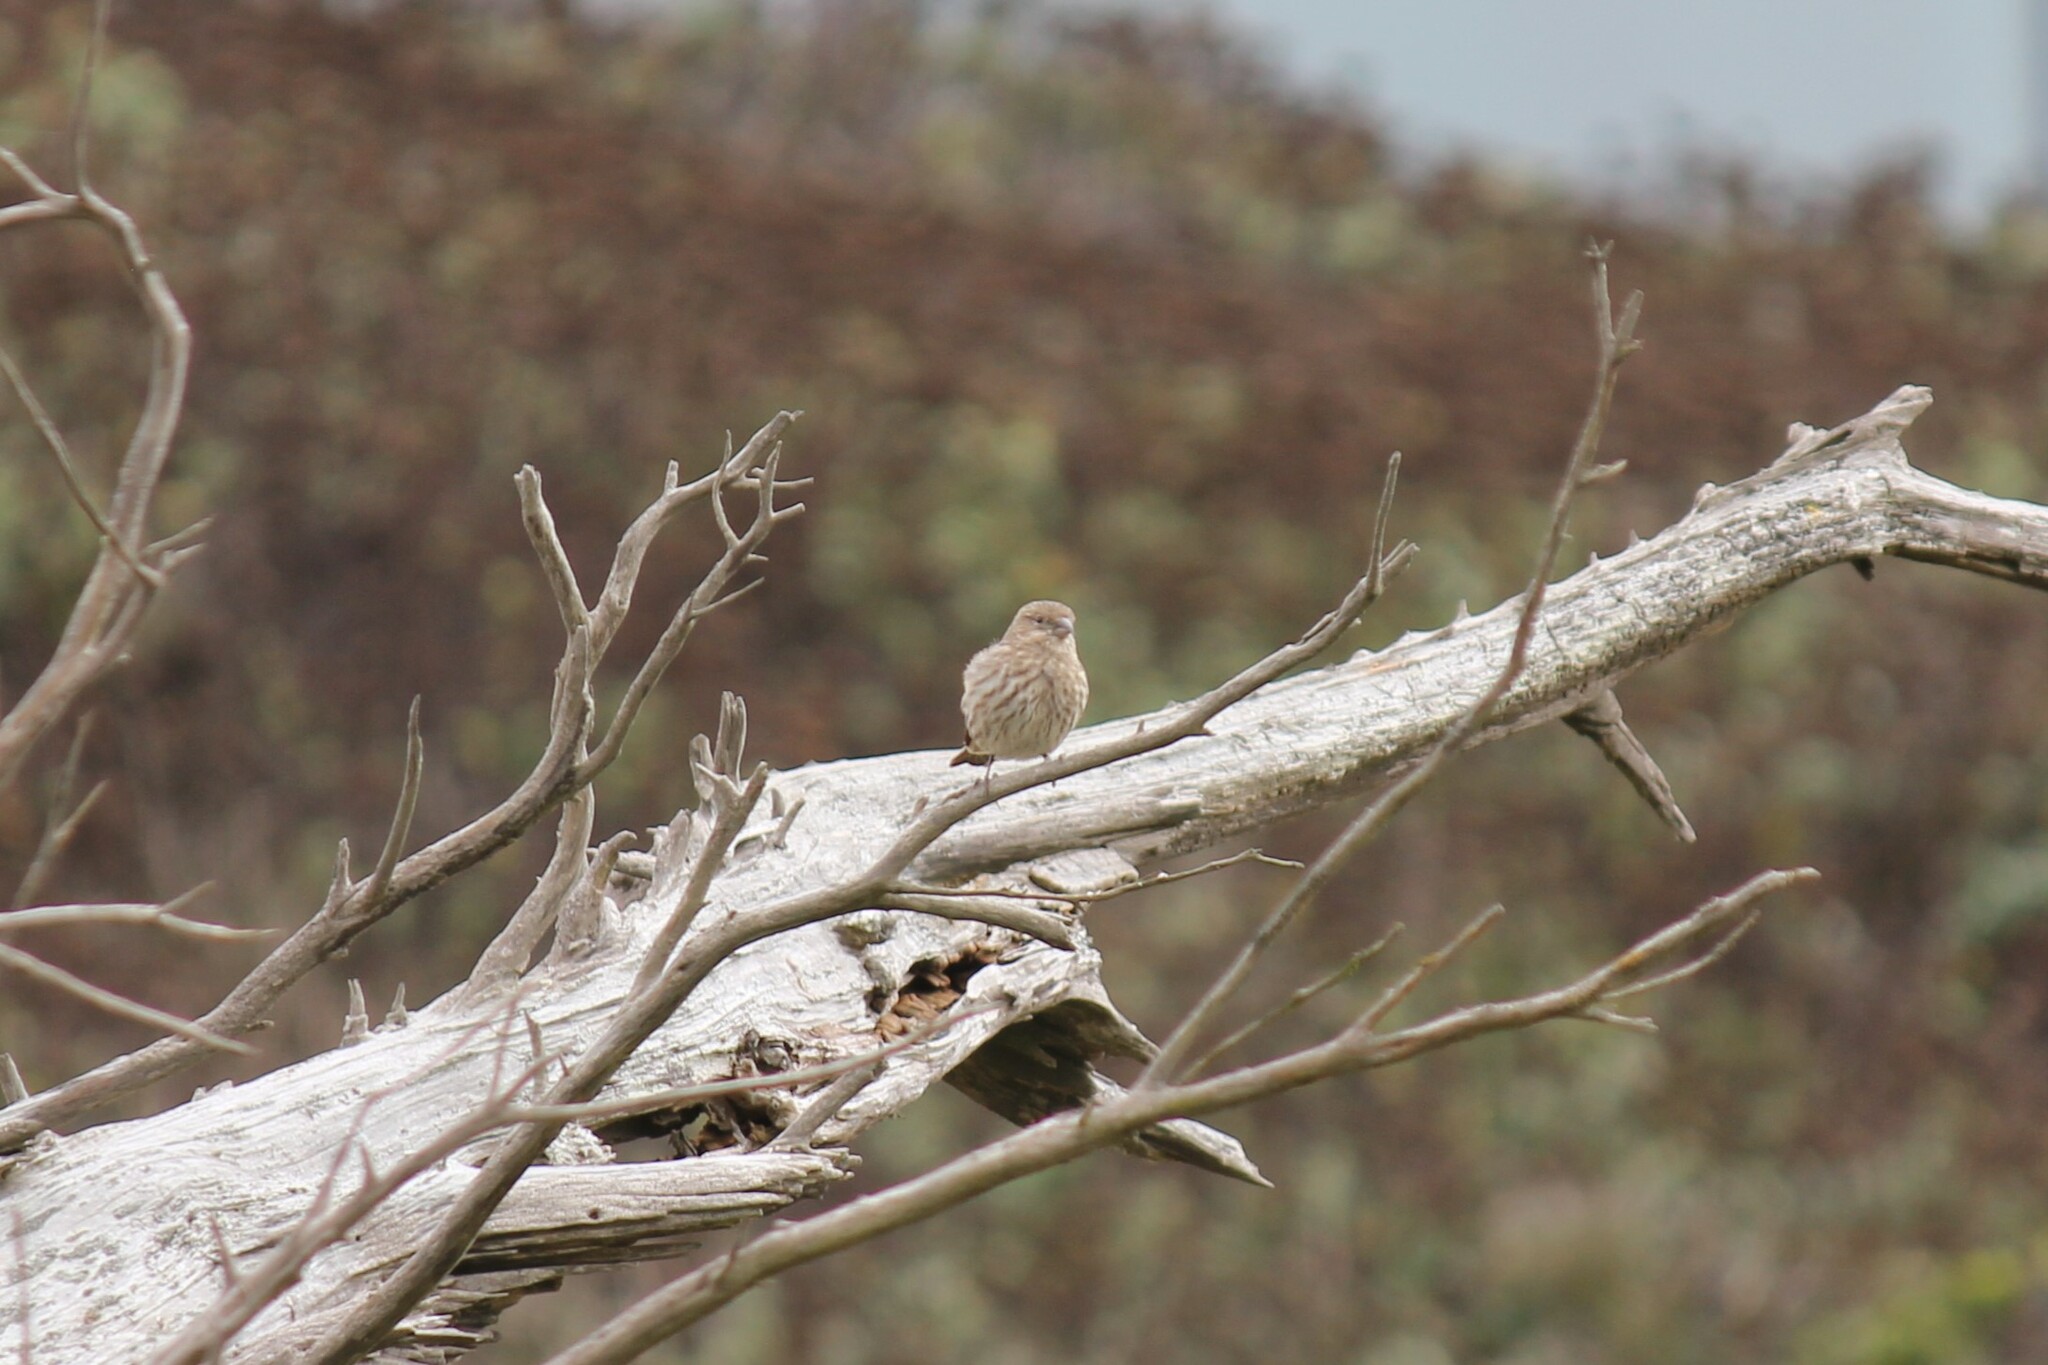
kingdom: Animalia
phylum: Chordata
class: Aves
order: Passeriformes
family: Fringillidae
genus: Haemorhous
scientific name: Haemorhous mexicanus
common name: House finch
